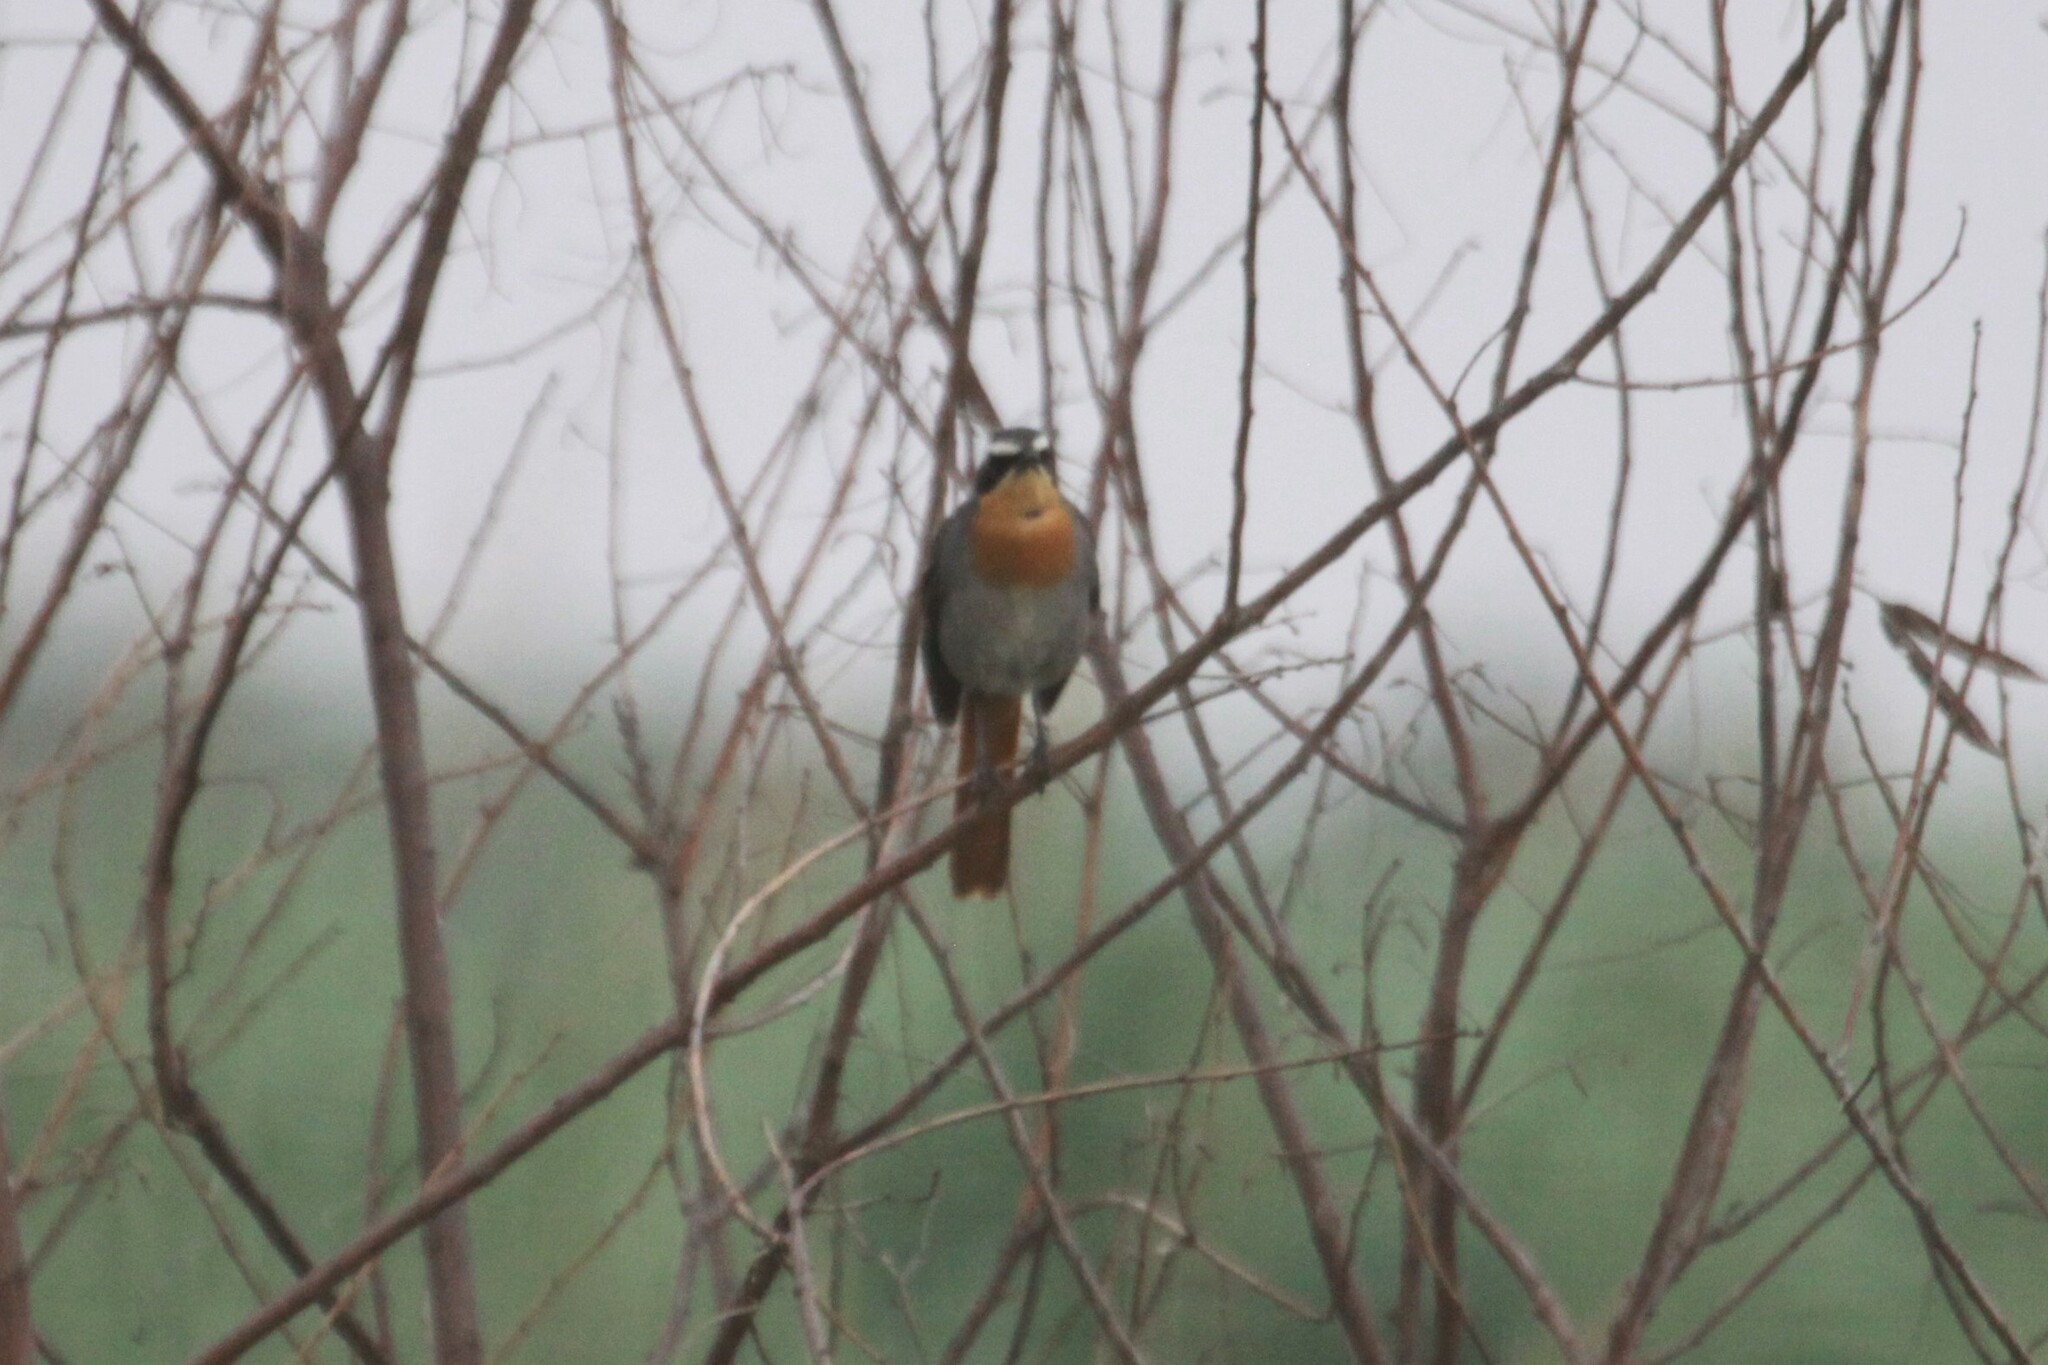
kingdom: Animalia
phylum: Chordata
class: Aves
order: Passeriformes
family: Muscicapidae
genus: Cossypha
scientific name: Cossypha caffra
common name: Cape robin-chat
